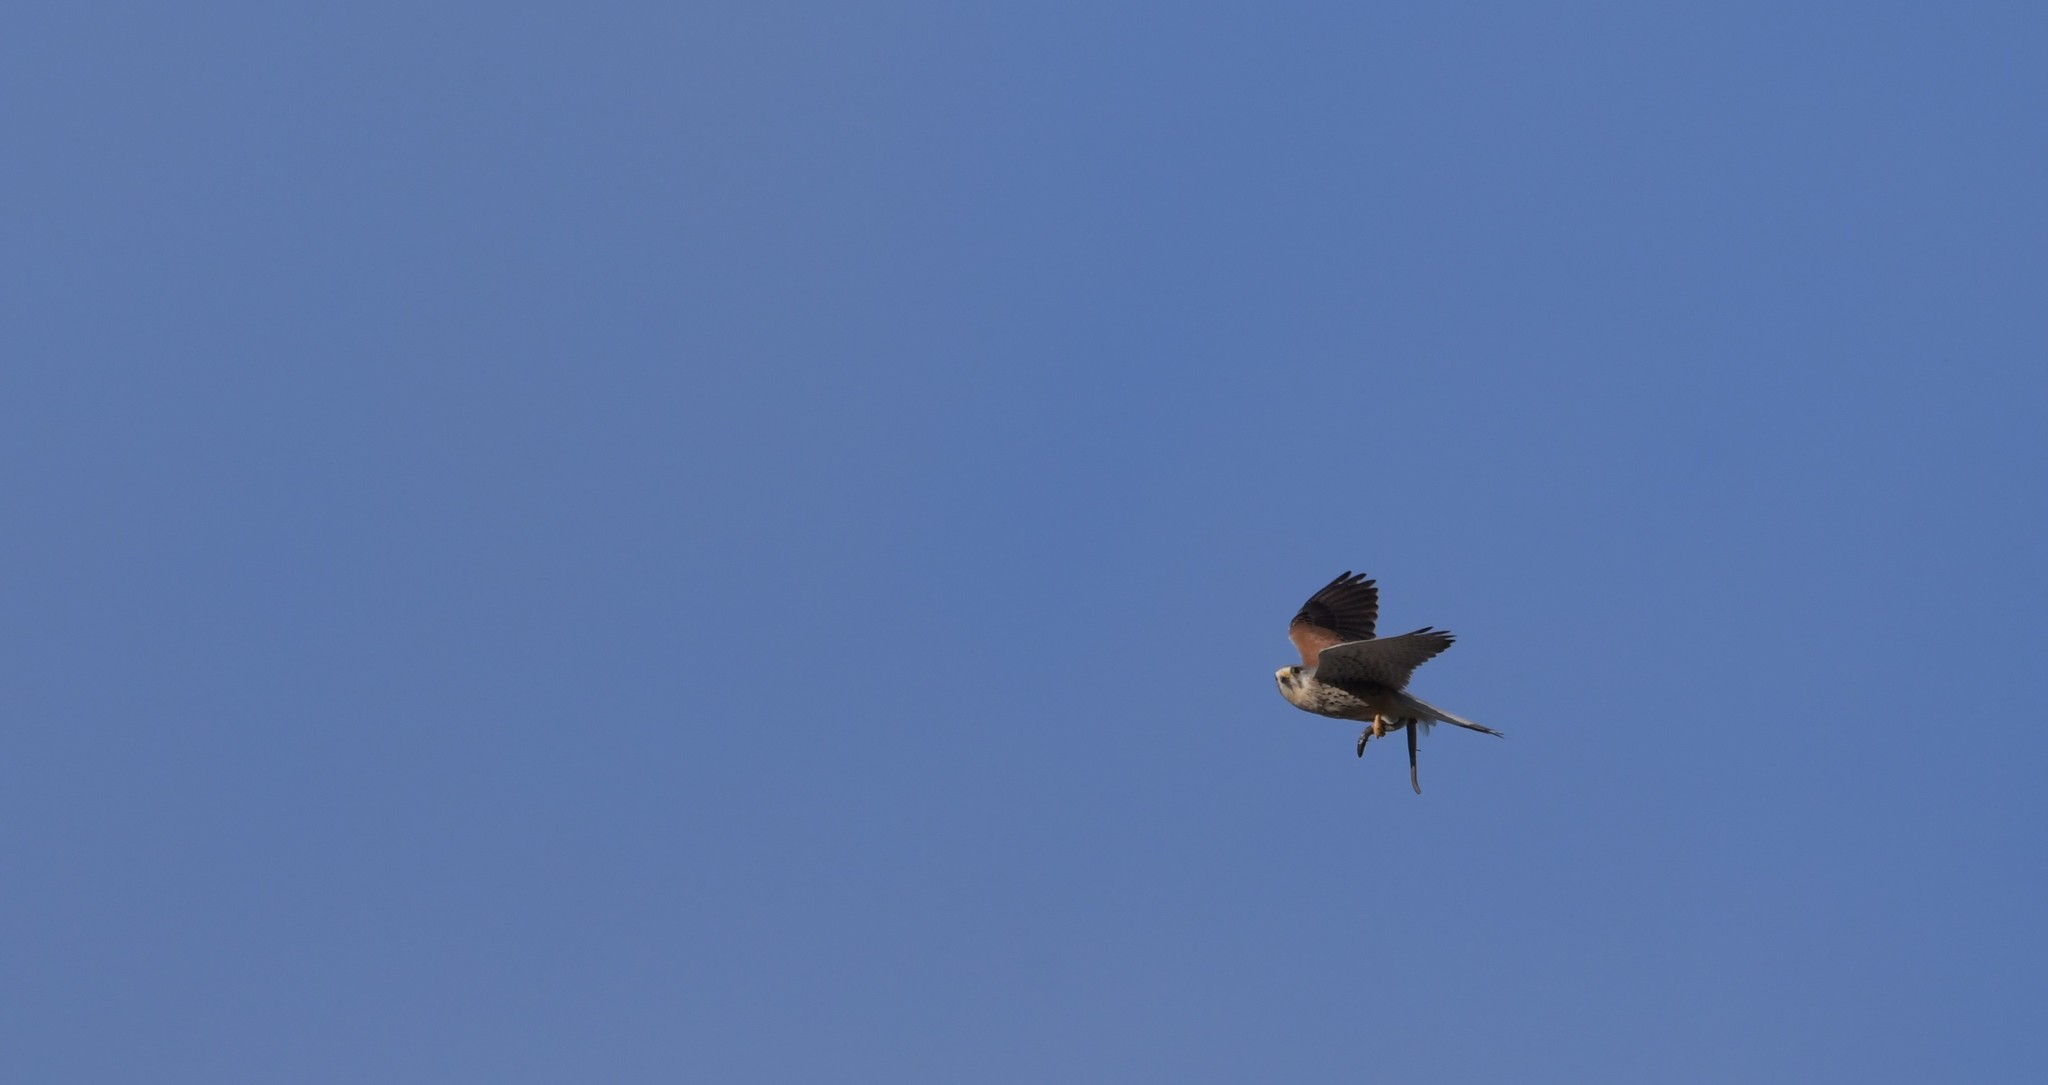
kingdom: Animalia
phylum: Chordata
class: Aves
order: Falconiformes
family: Falconidae
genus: Falco
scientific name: Falco tinnunculus
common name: Common kestrel
